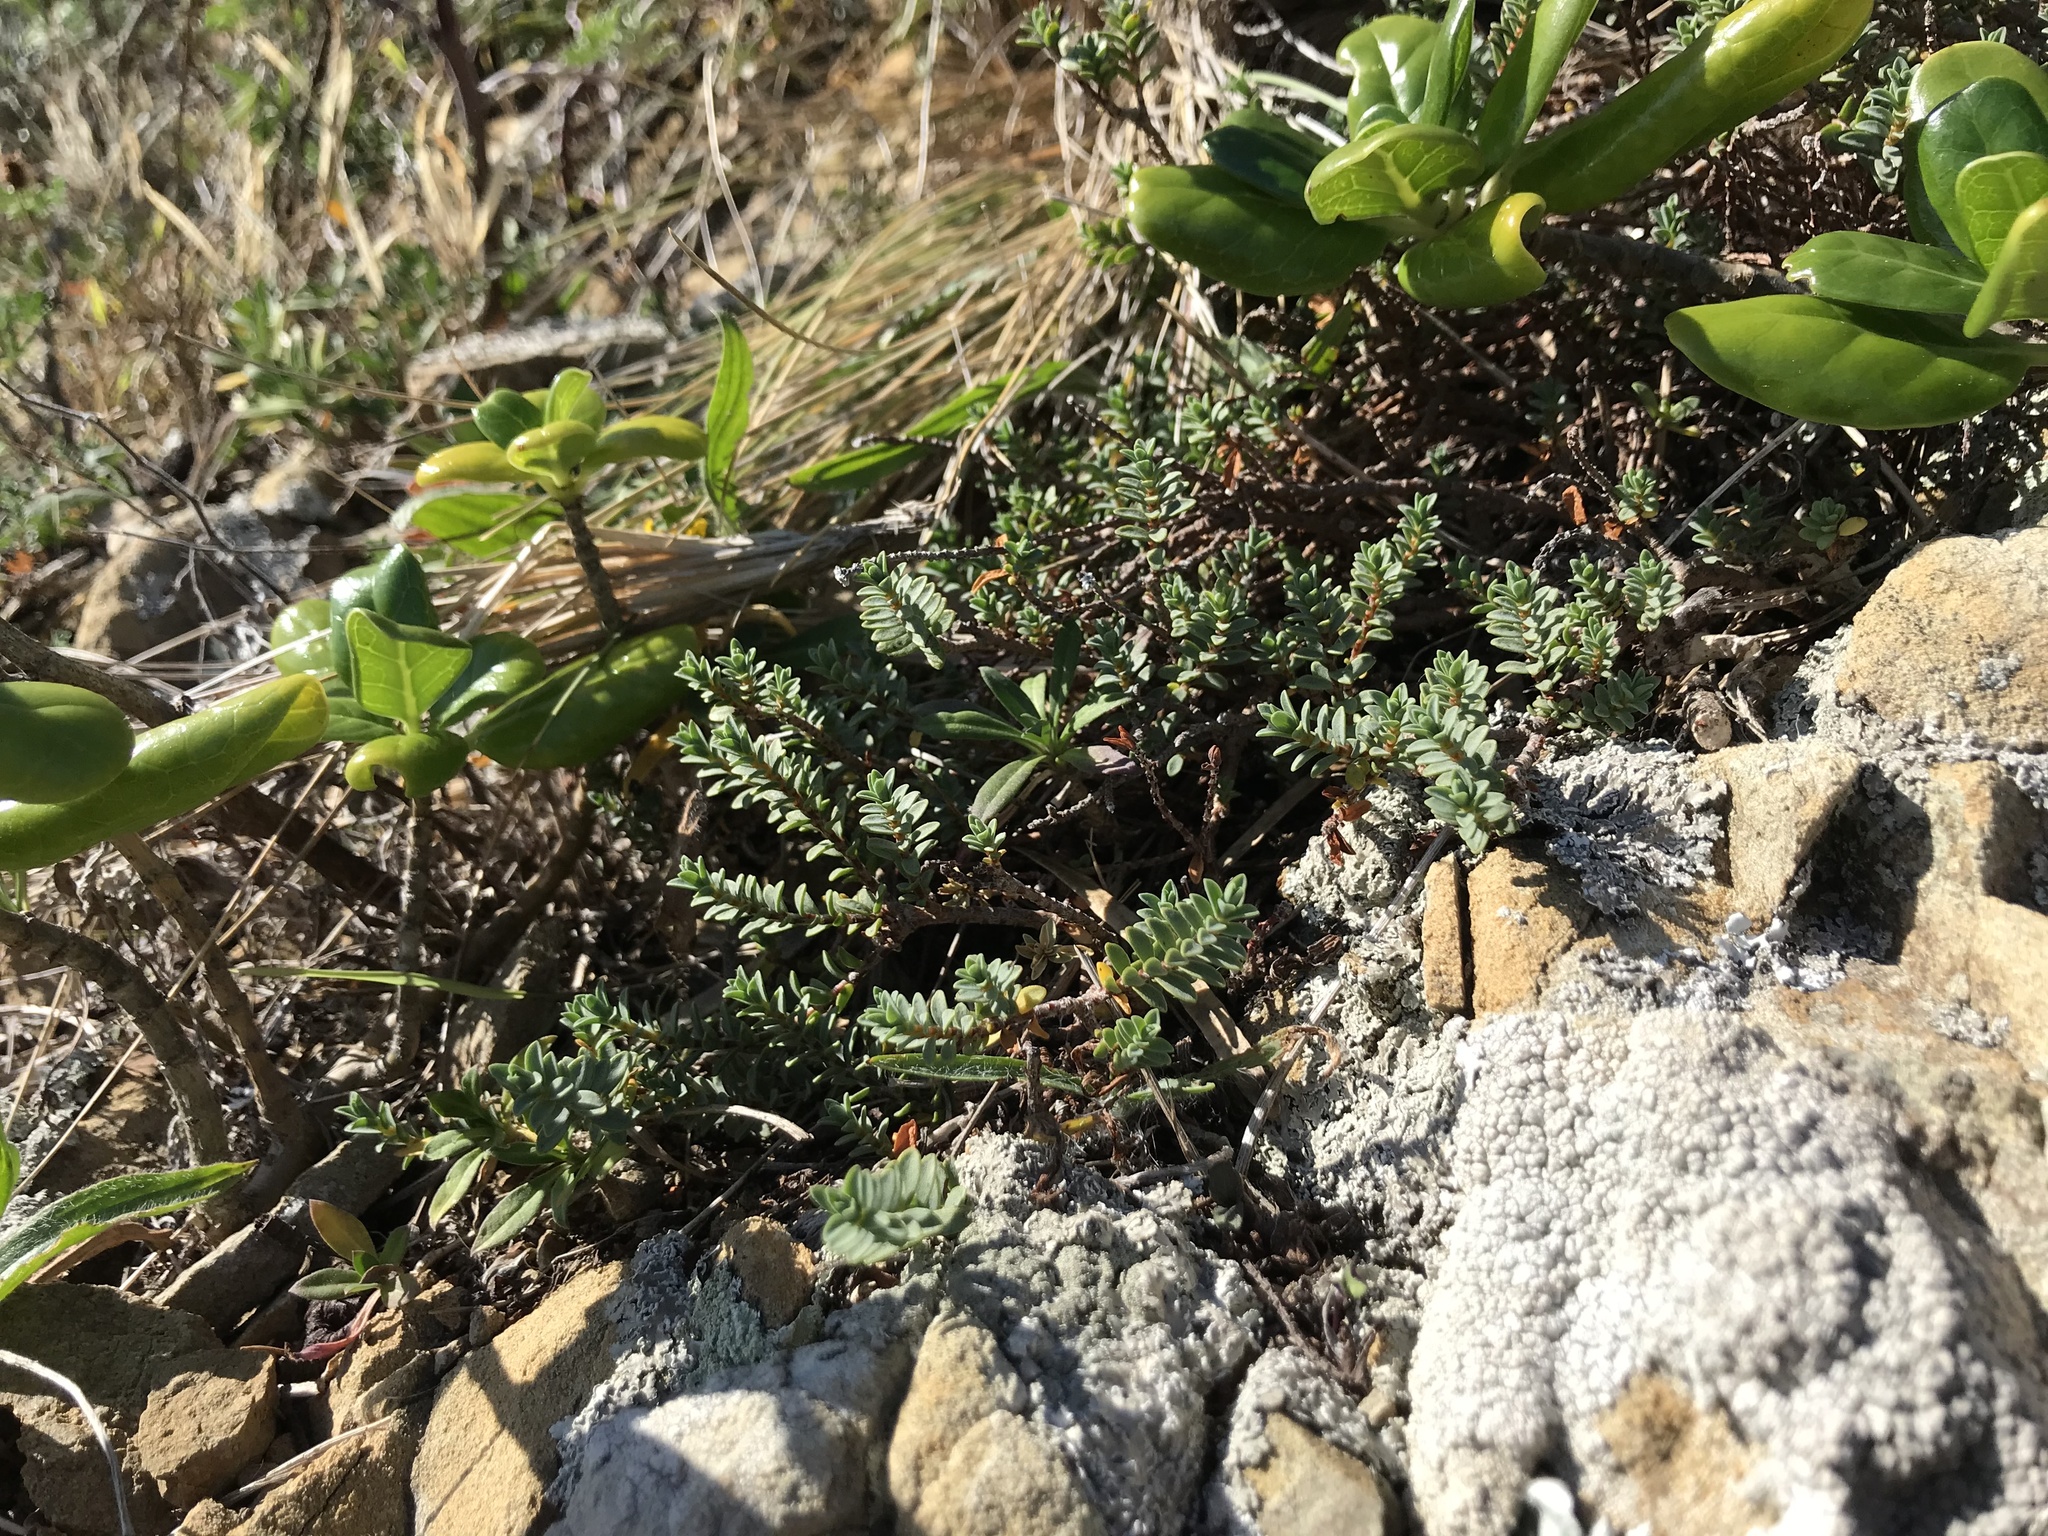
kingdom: Plantae
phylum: Tracheophyta
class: Magnoliopsida
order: Malvales
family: Thymelaeaceae
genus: Pimelea
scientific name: Pimelea prostrata
